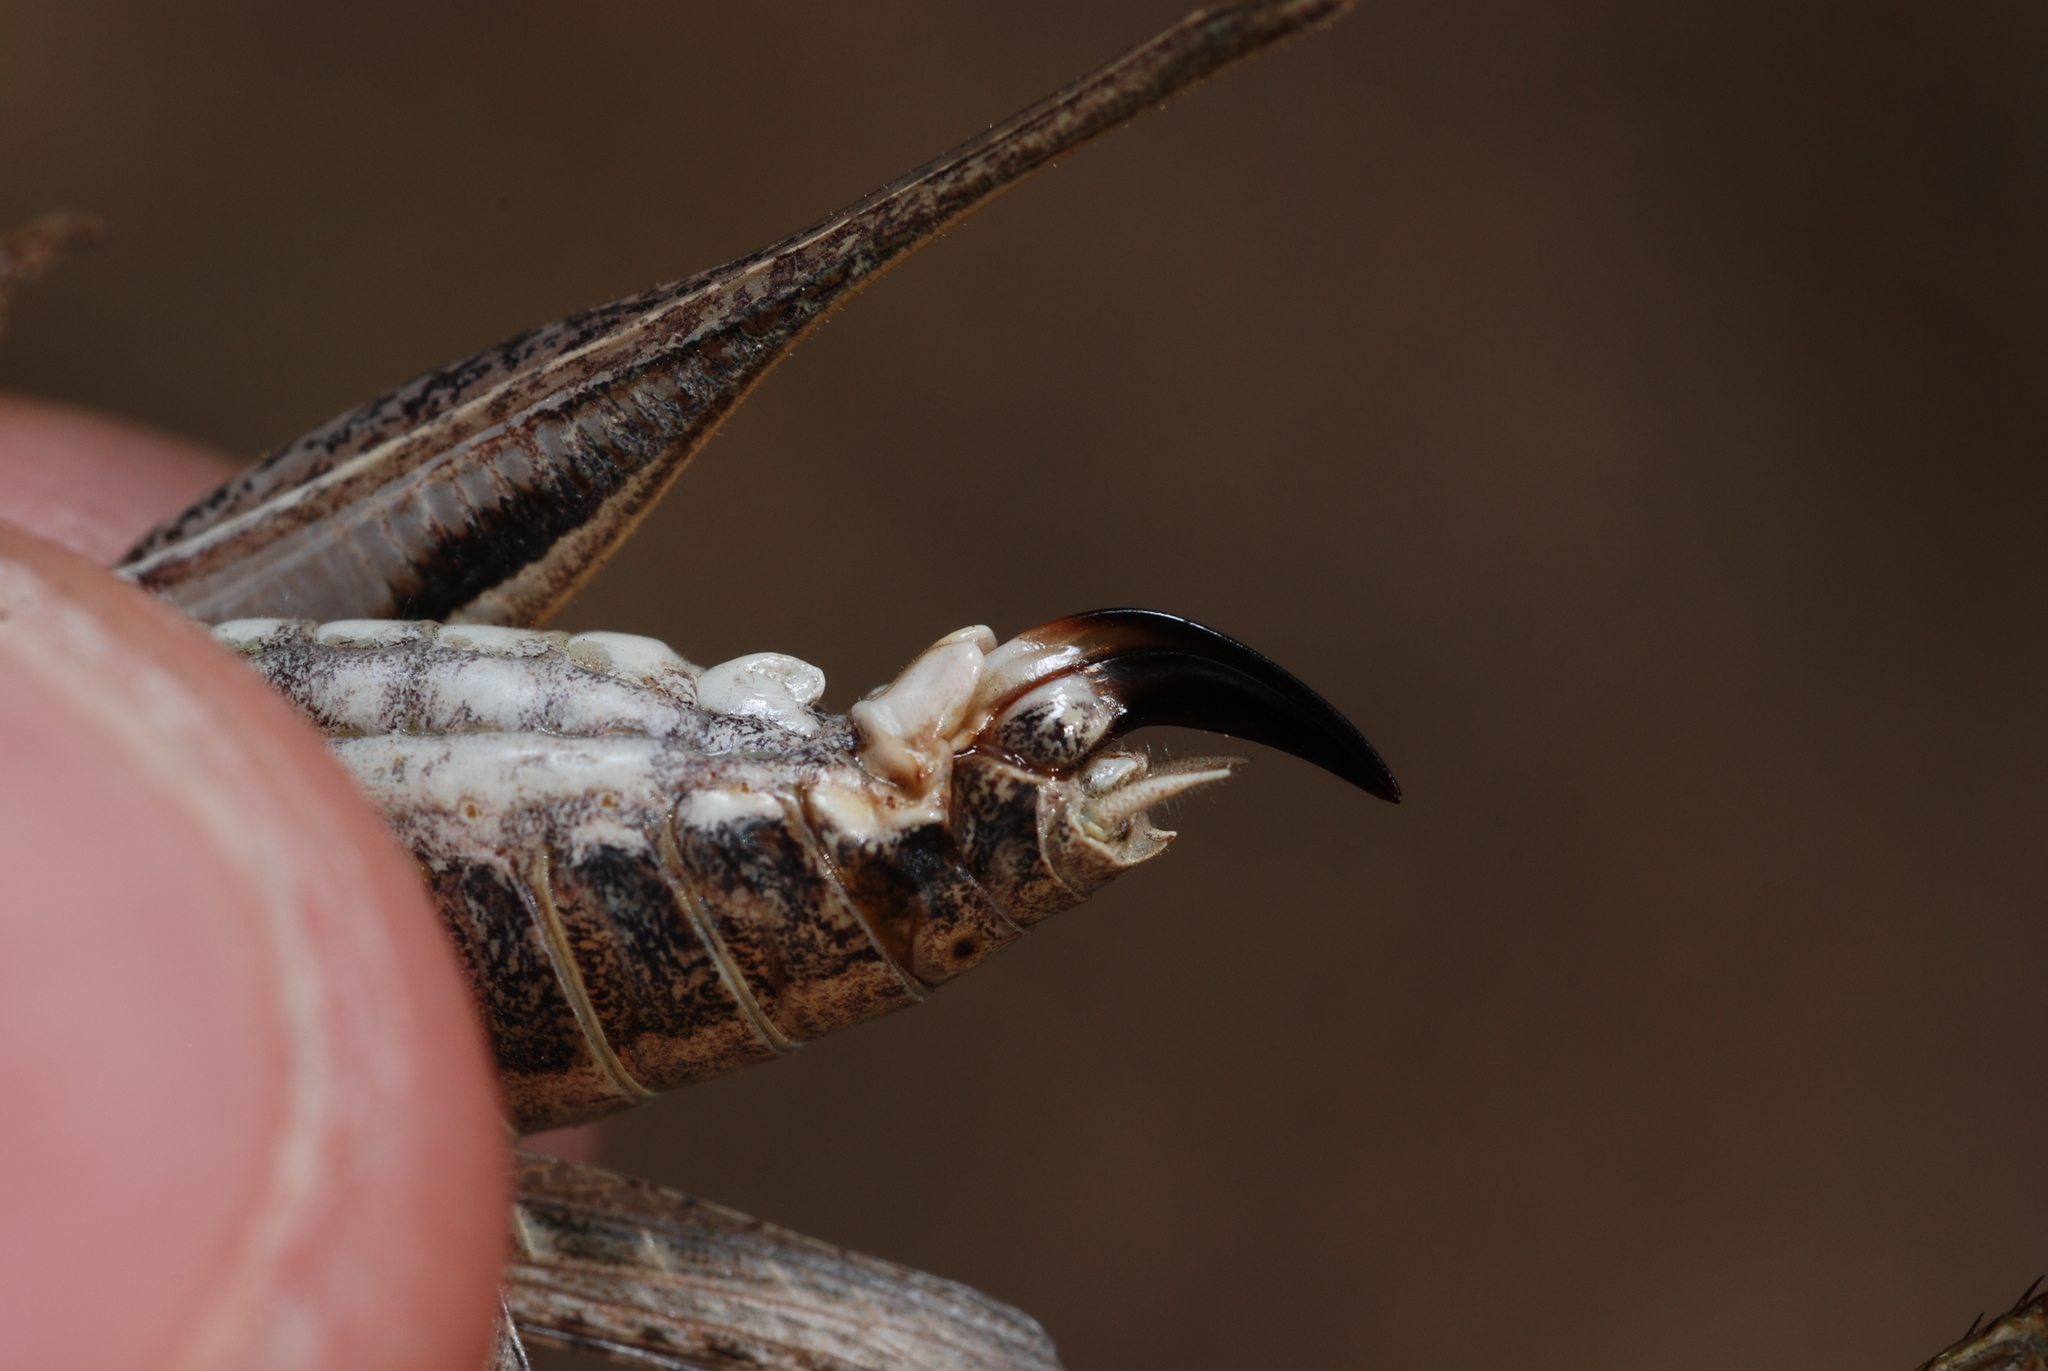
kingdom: Animalia
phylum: Arthropoda
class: Insecta
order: Orthoptera
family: Tettigoniidae
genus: Tessellana
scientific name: Tessellana tessellata
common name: Grasshopper
